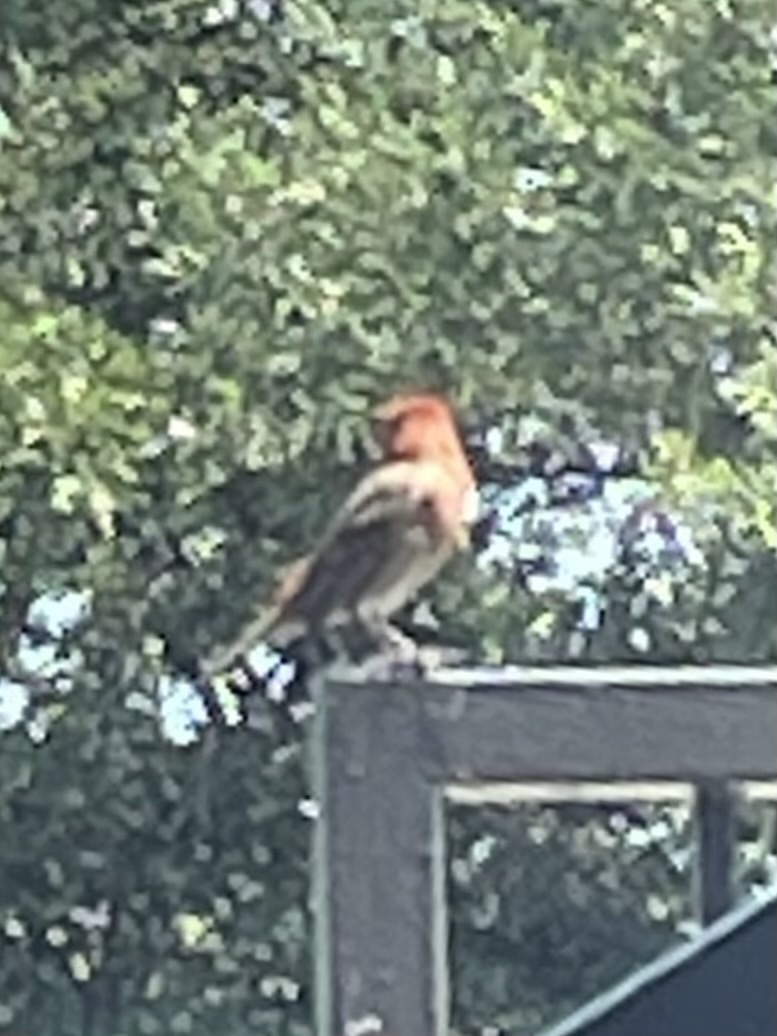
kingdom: Animalia
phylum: Chordata
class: Aves
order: Passeriformes
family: Fringillidae
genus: Haemorhous
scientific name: Haemorhous mexicanus
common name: House finch
